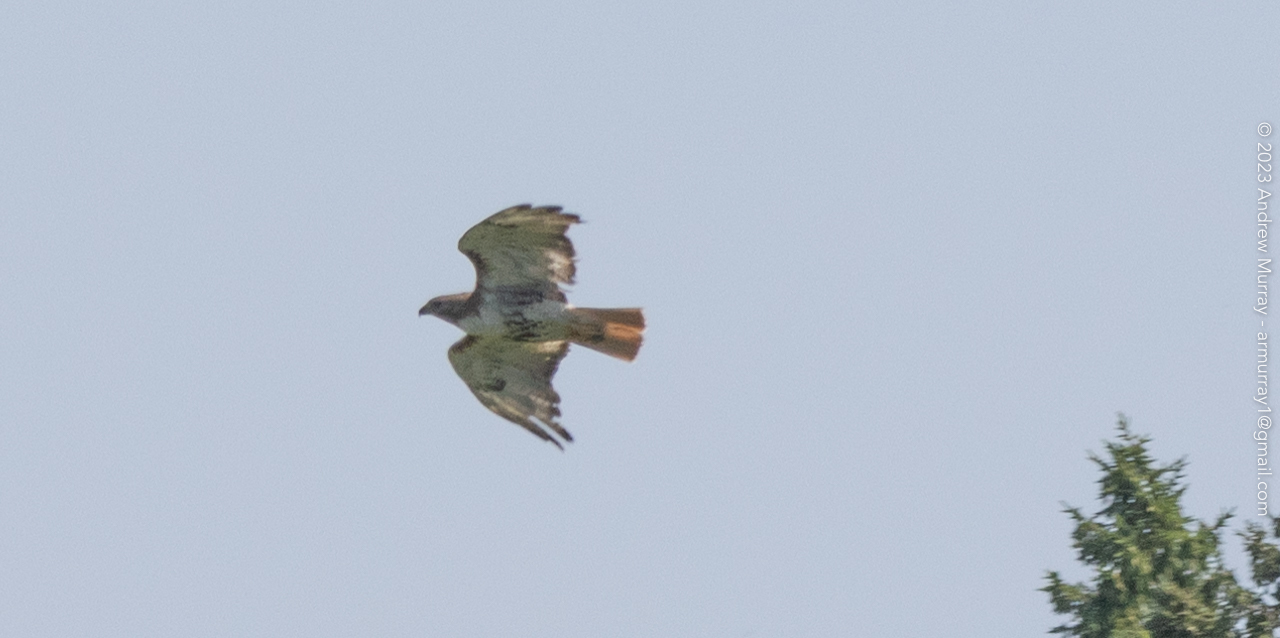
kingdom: Animalia
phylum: Chordata
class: Aves
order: Accipitriformes
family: Accipitridae
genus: Buteo
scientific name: Buteo jamaicensis
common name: Red-tailed hawk
